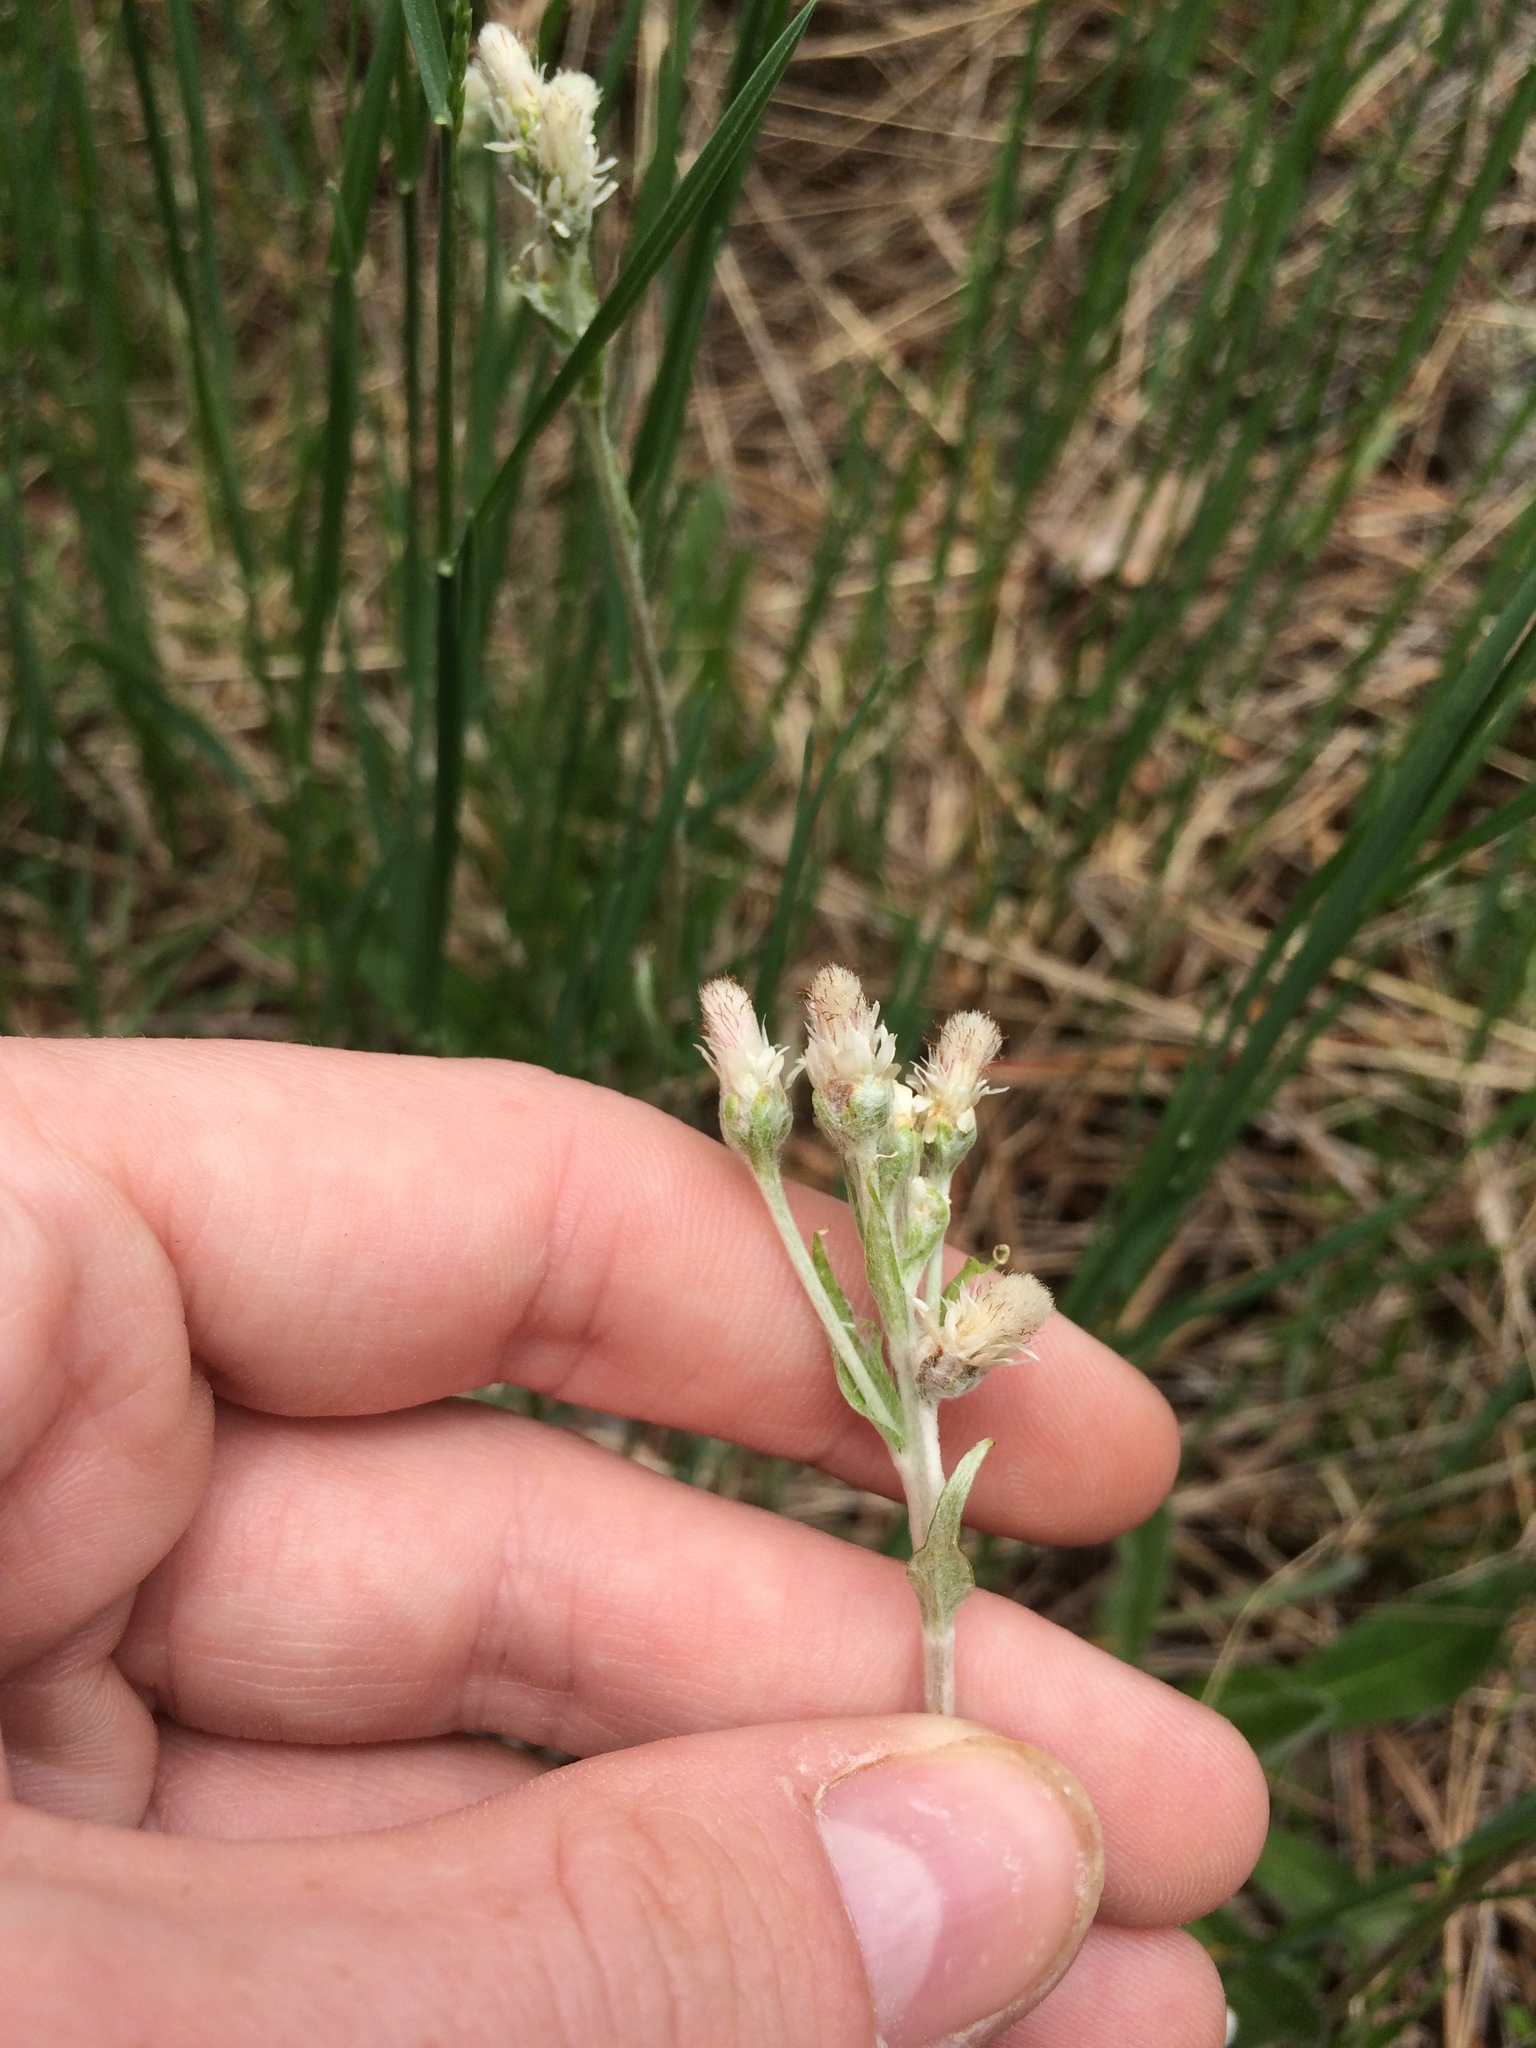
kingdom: Plantae
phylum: Tracheophyta
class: Magnoliopsida
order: Asterales
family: Asteraceae
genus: Antennaria
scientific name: Antennaria howellii
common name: Howell's pussytoes
